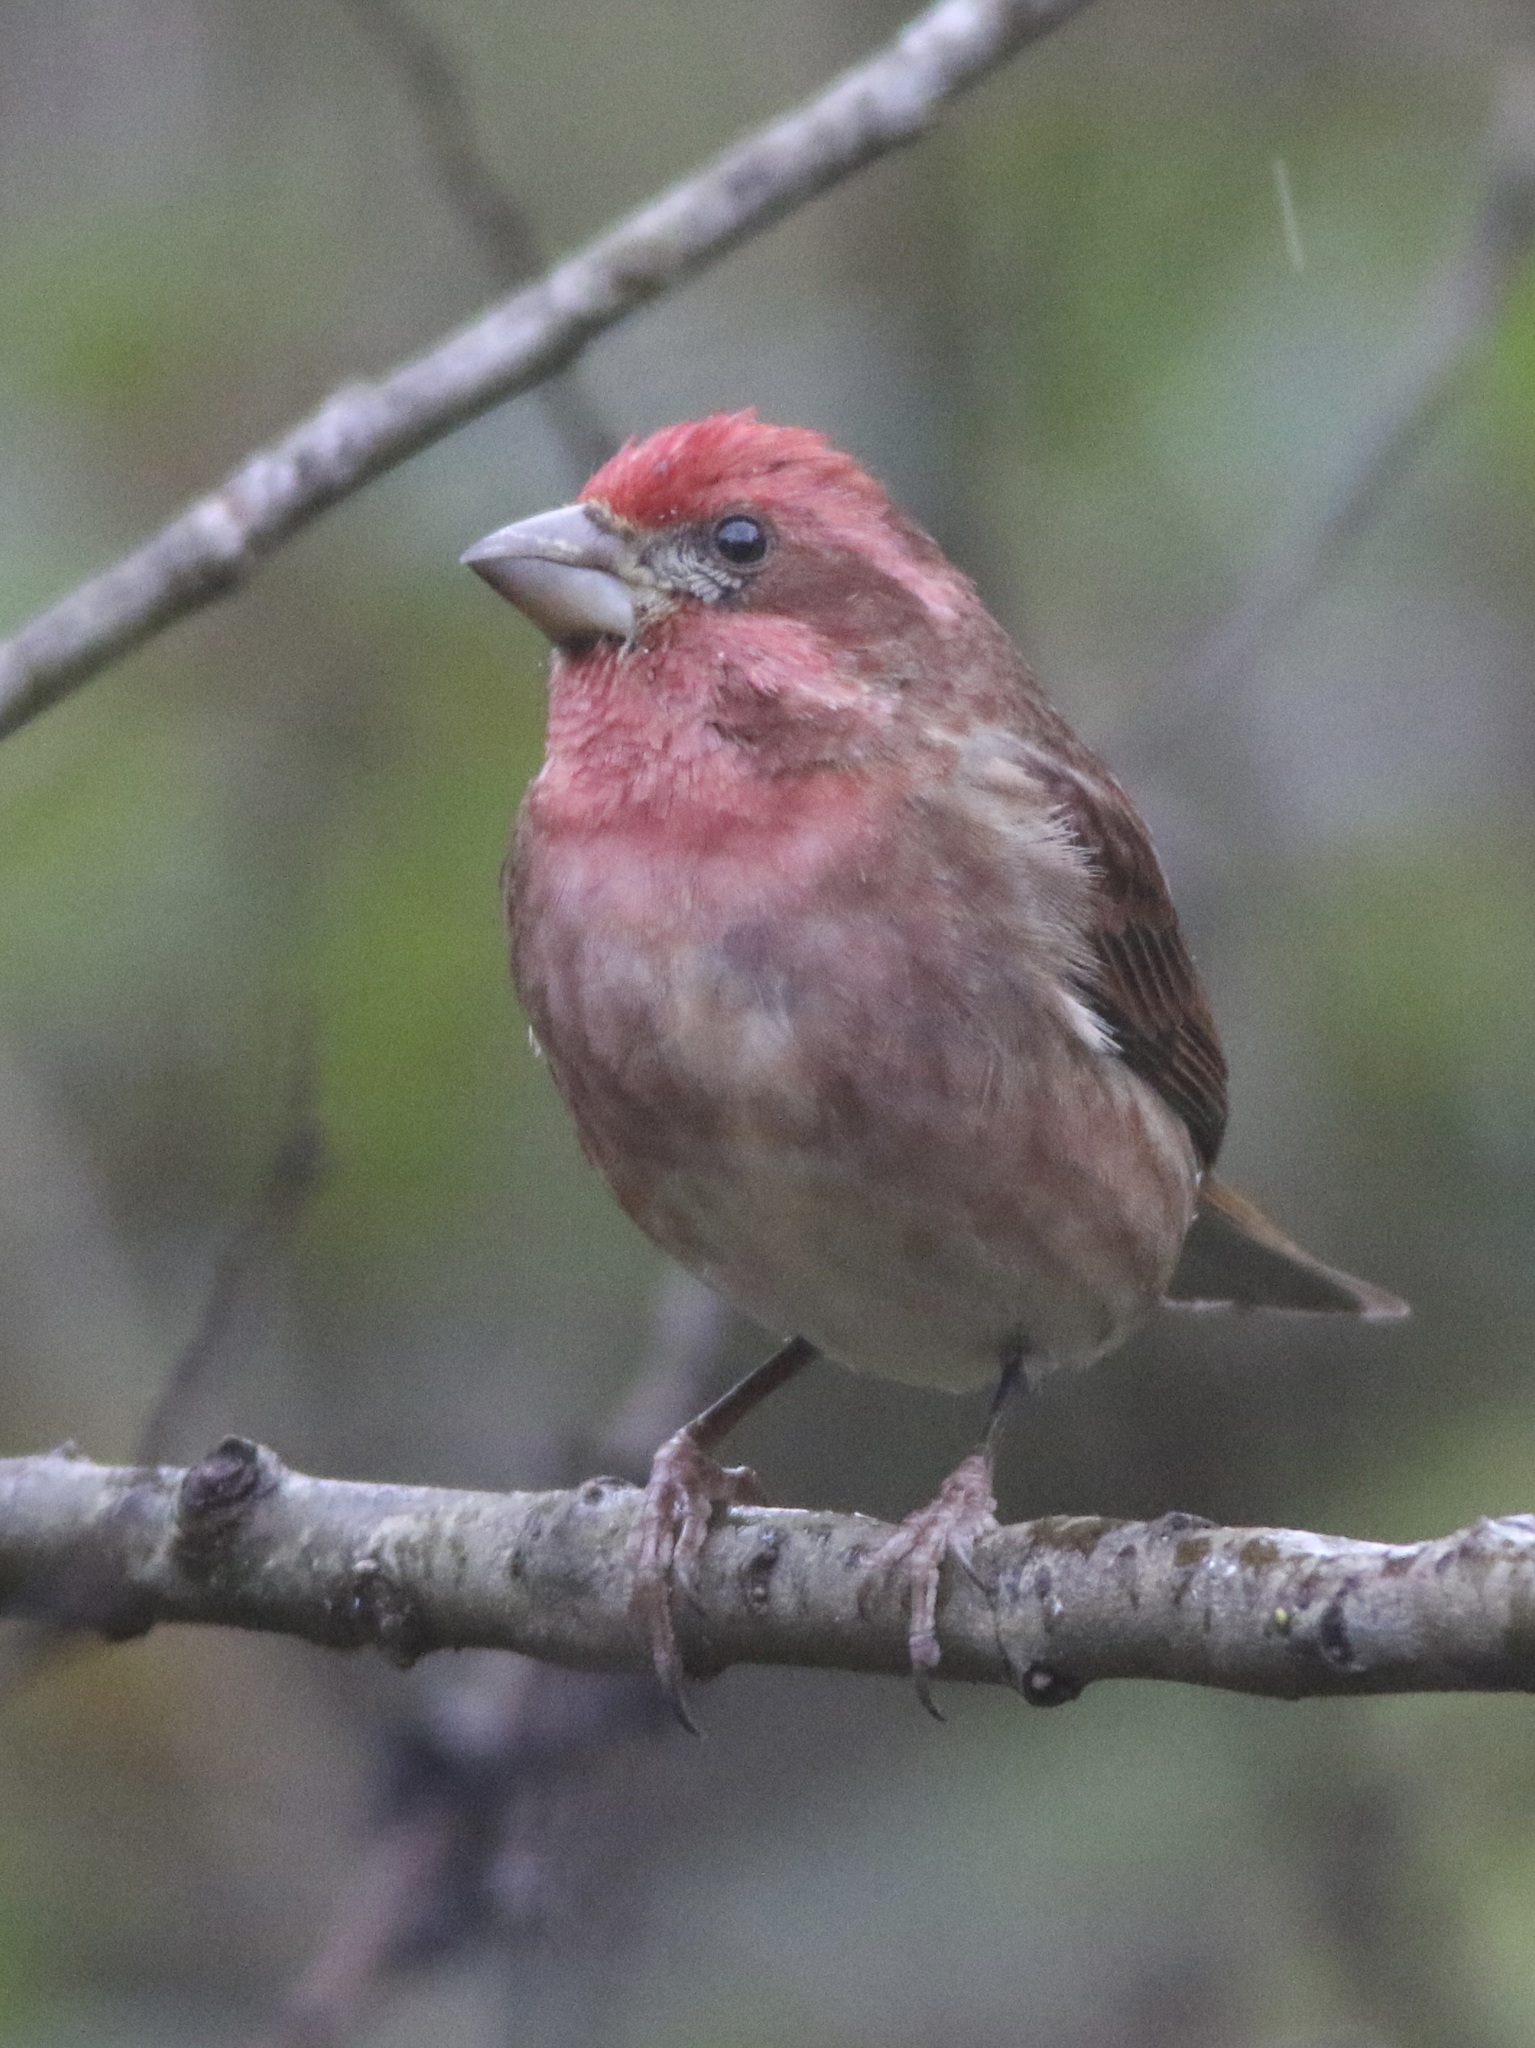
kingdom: Animalia
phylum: Chordata
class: Aves
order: Passeriformes
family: Fringillidae
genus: Haemorhous
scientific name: Haemorhous purpureus
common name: Purple finch
